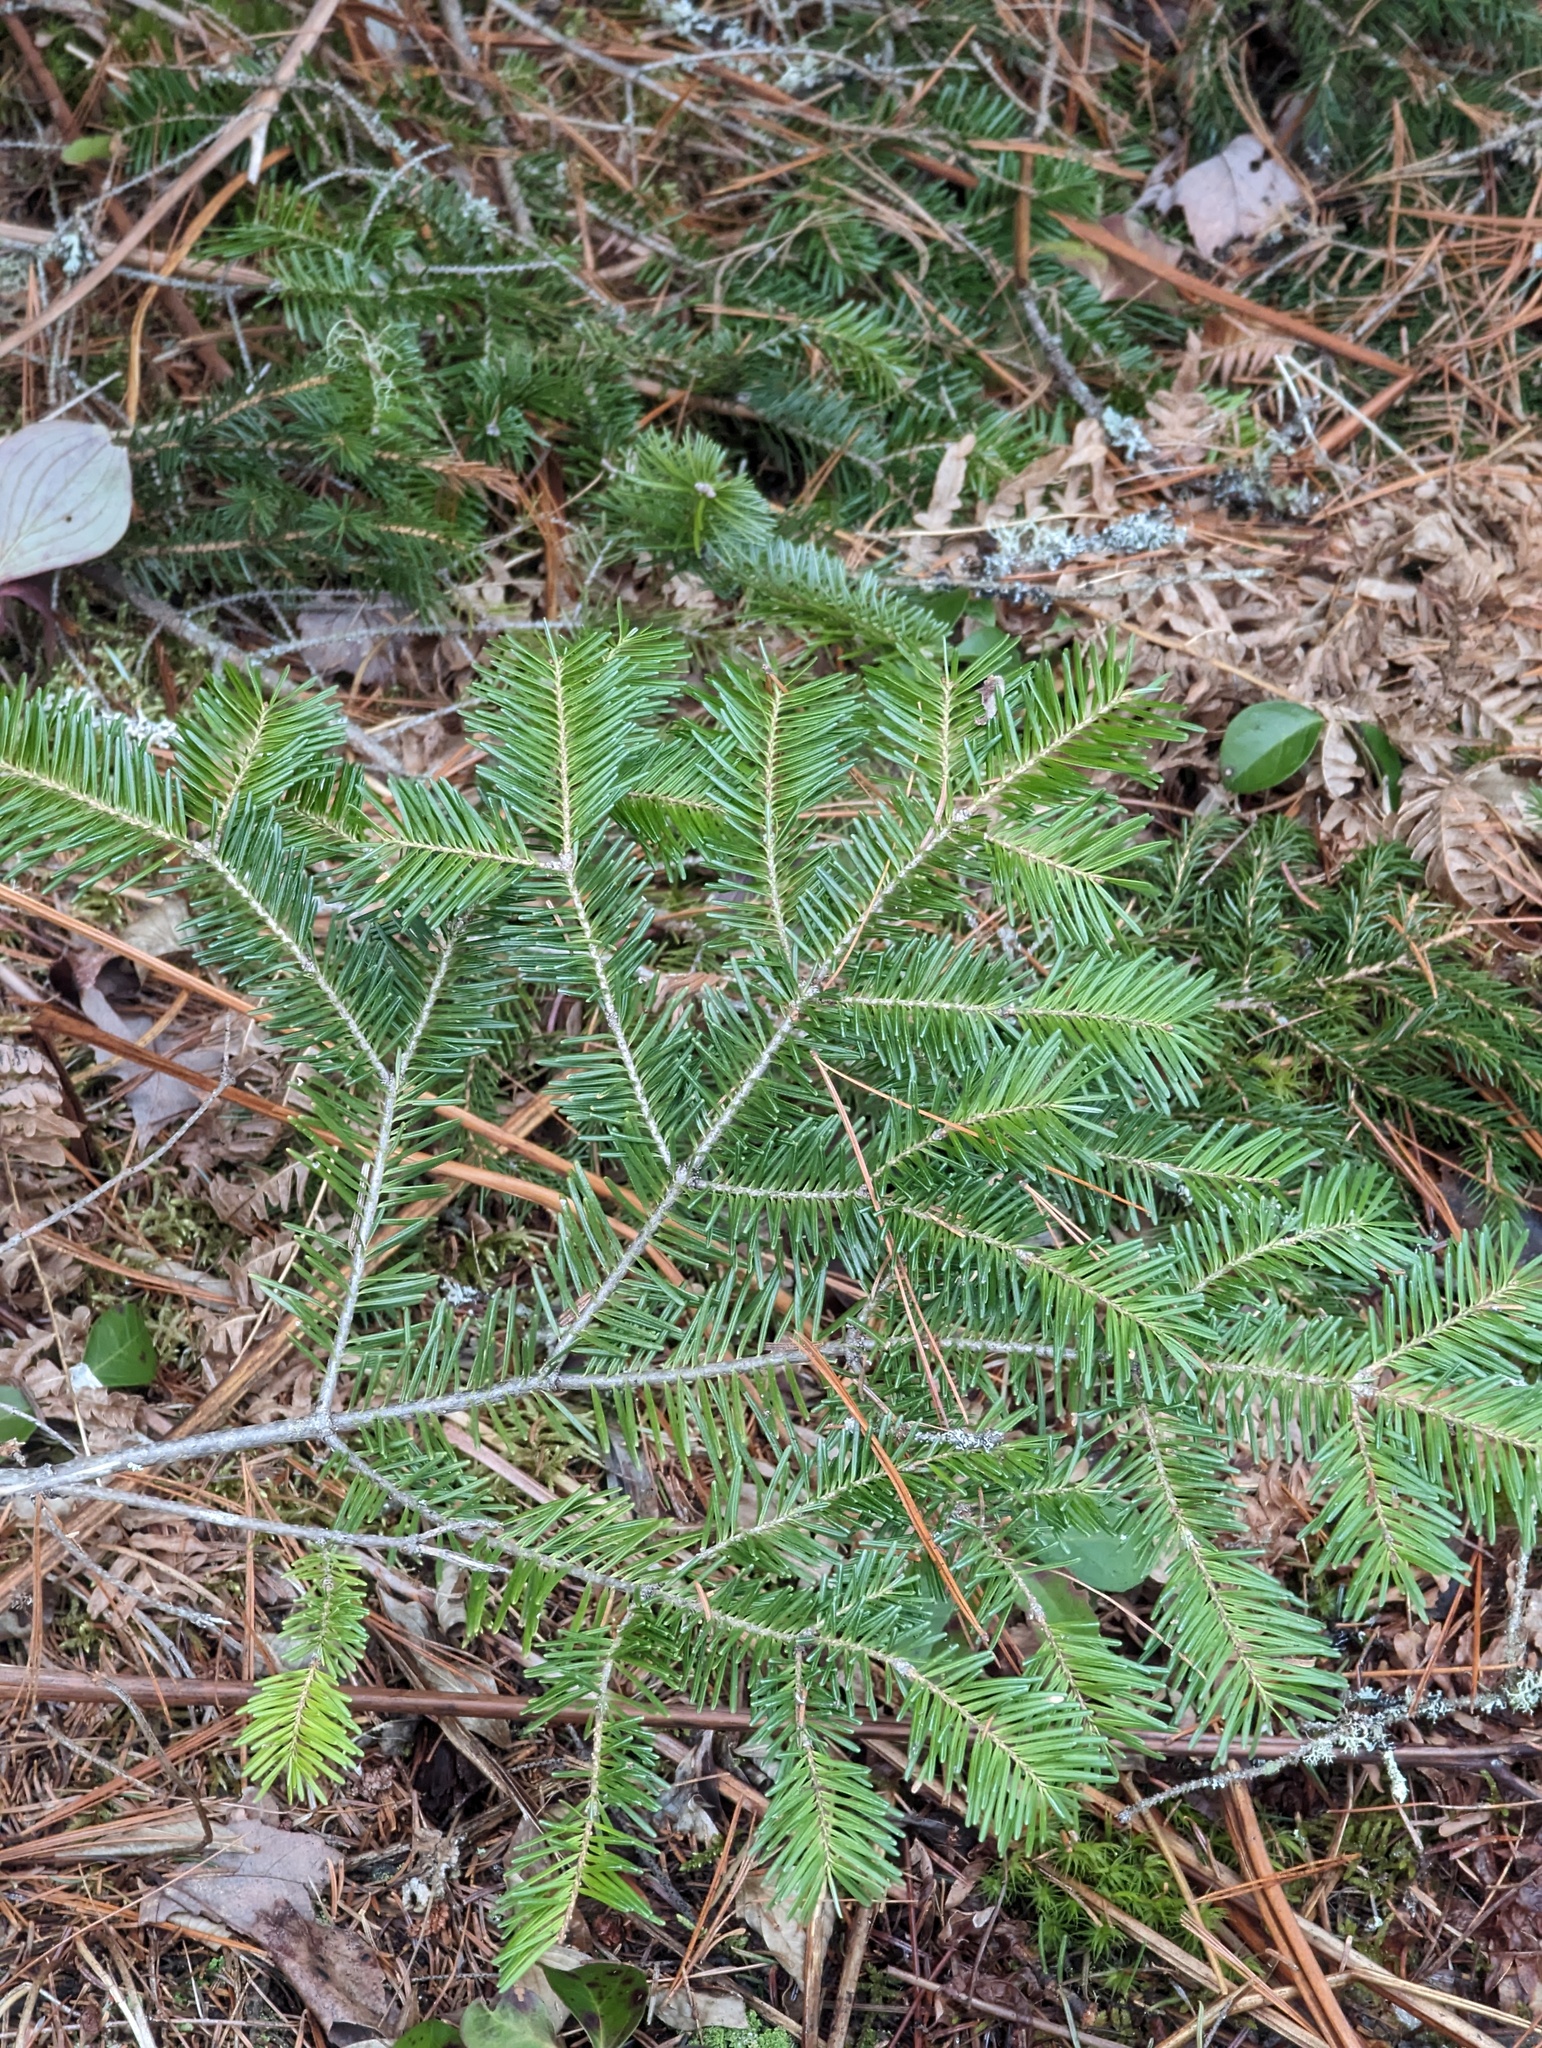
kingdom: Plantae
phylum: Tracheophyta
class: Pinopsida
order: Pinales
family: Pinaceae
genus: Abies
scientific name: Abies balsamea
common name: Balsam fir
